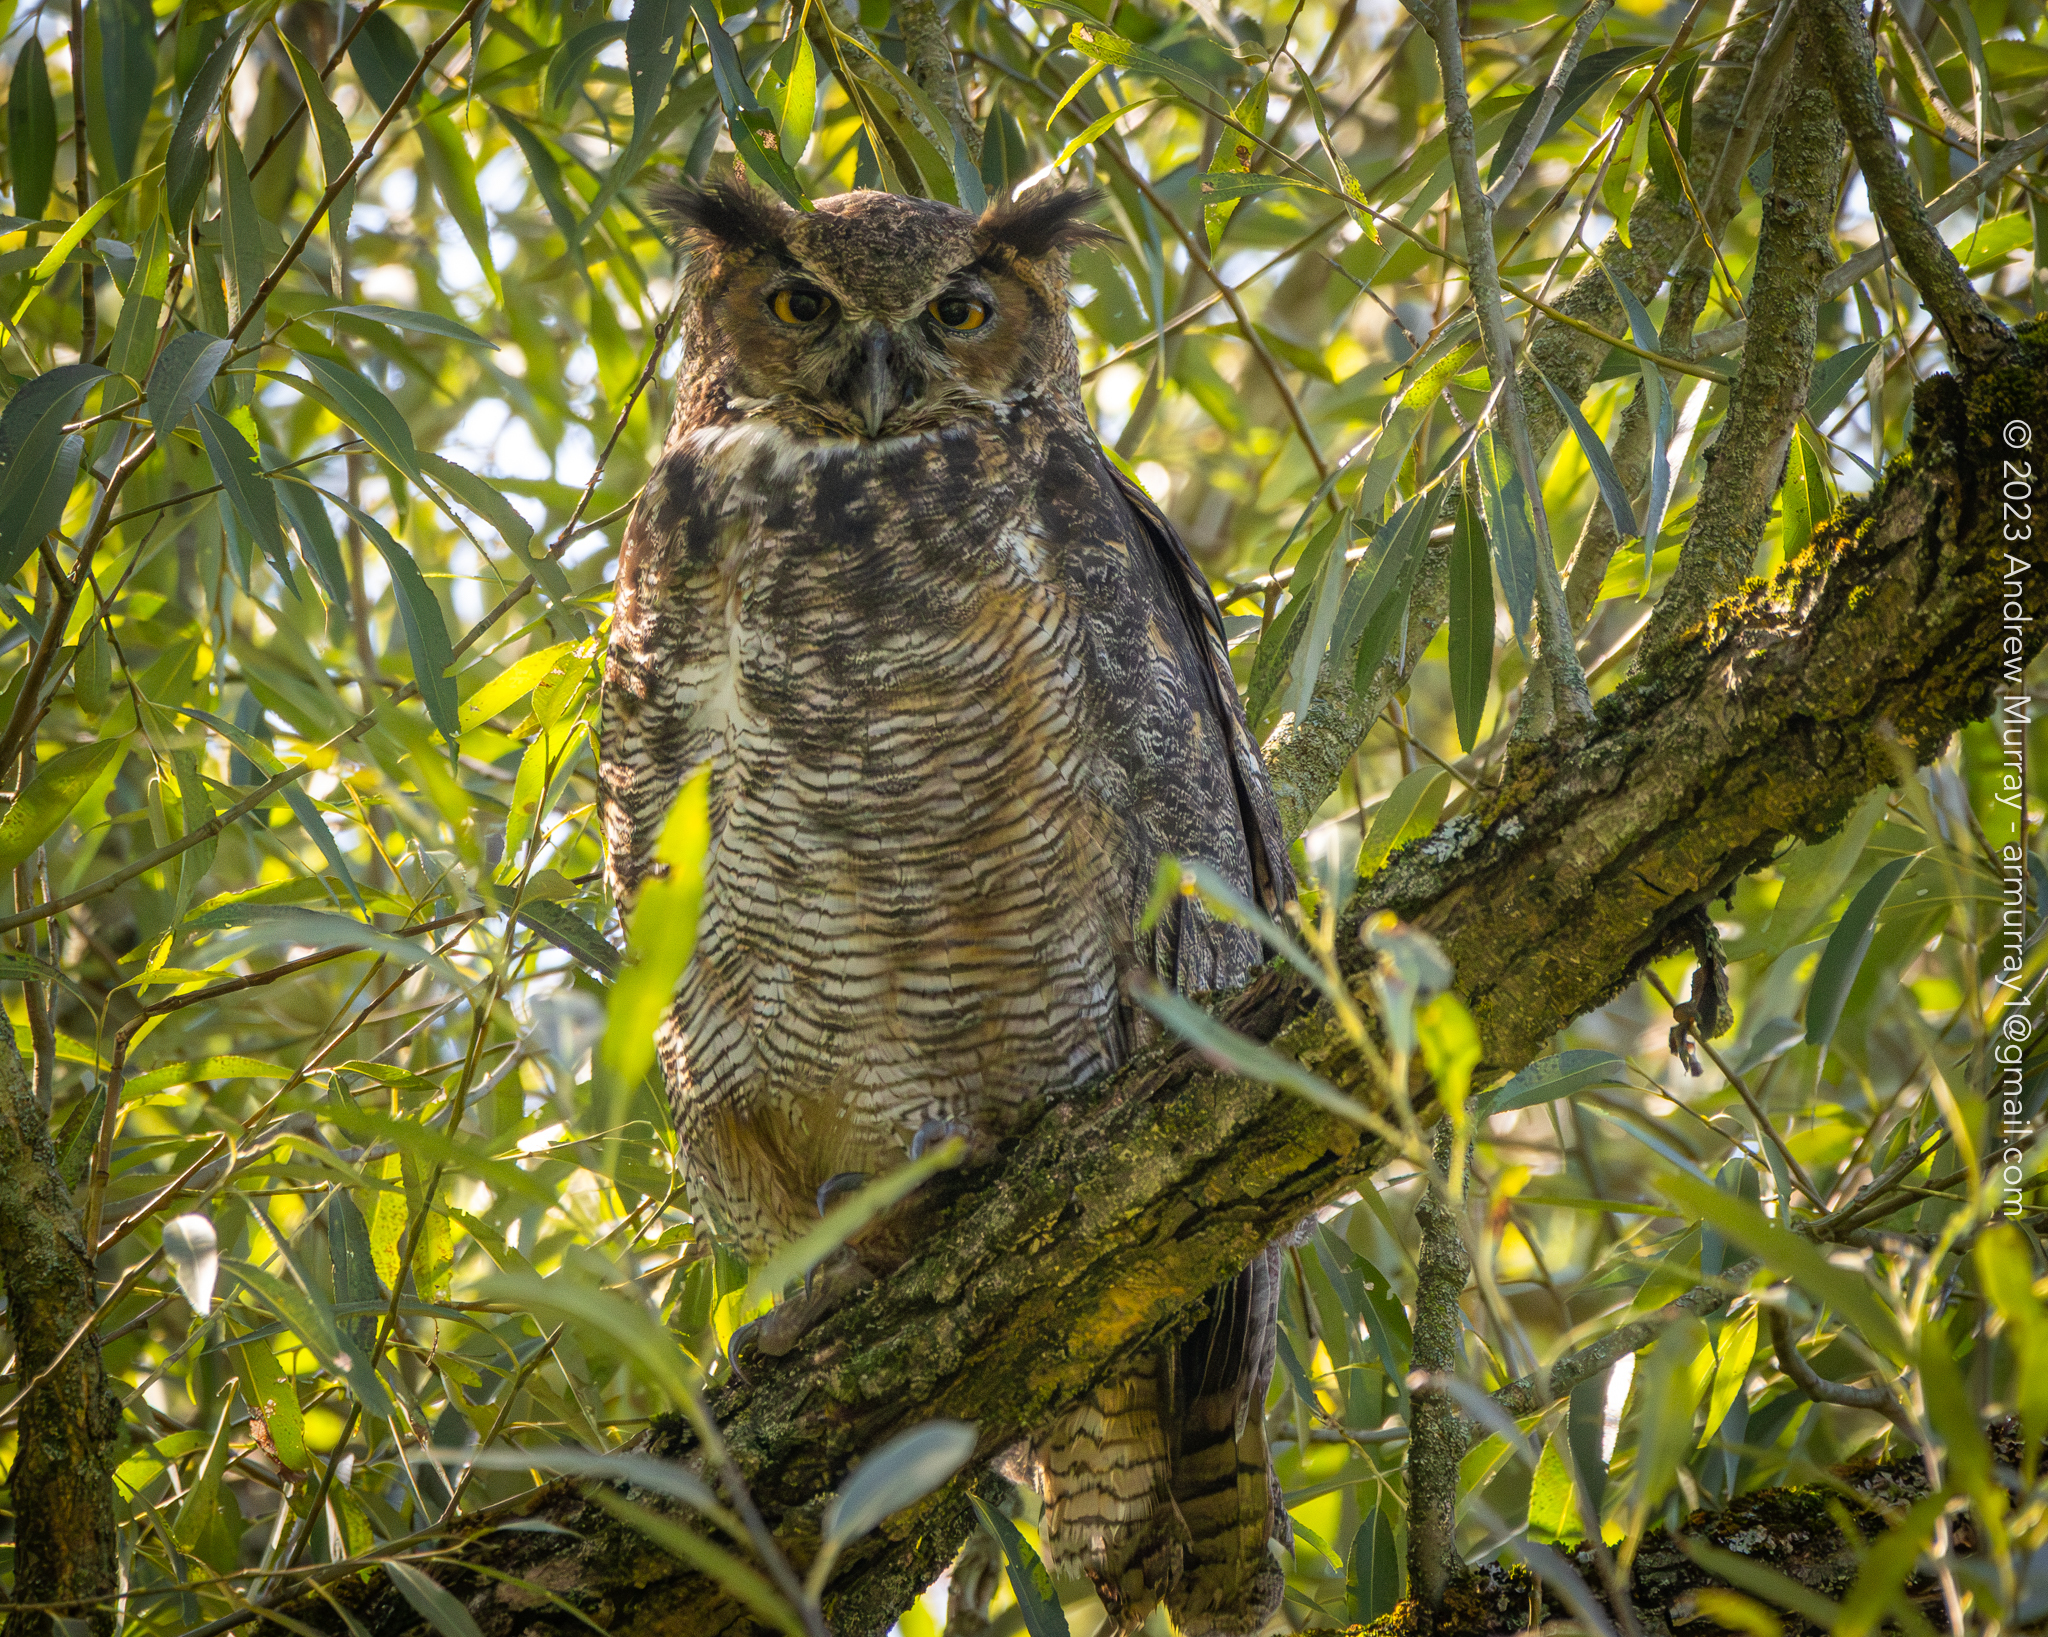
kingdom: Animalia
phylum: Chordata
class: Aves
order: Strigiformes
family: Strigidae
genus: Bubo
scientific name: Bubo virginianus
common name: Great horned owl
